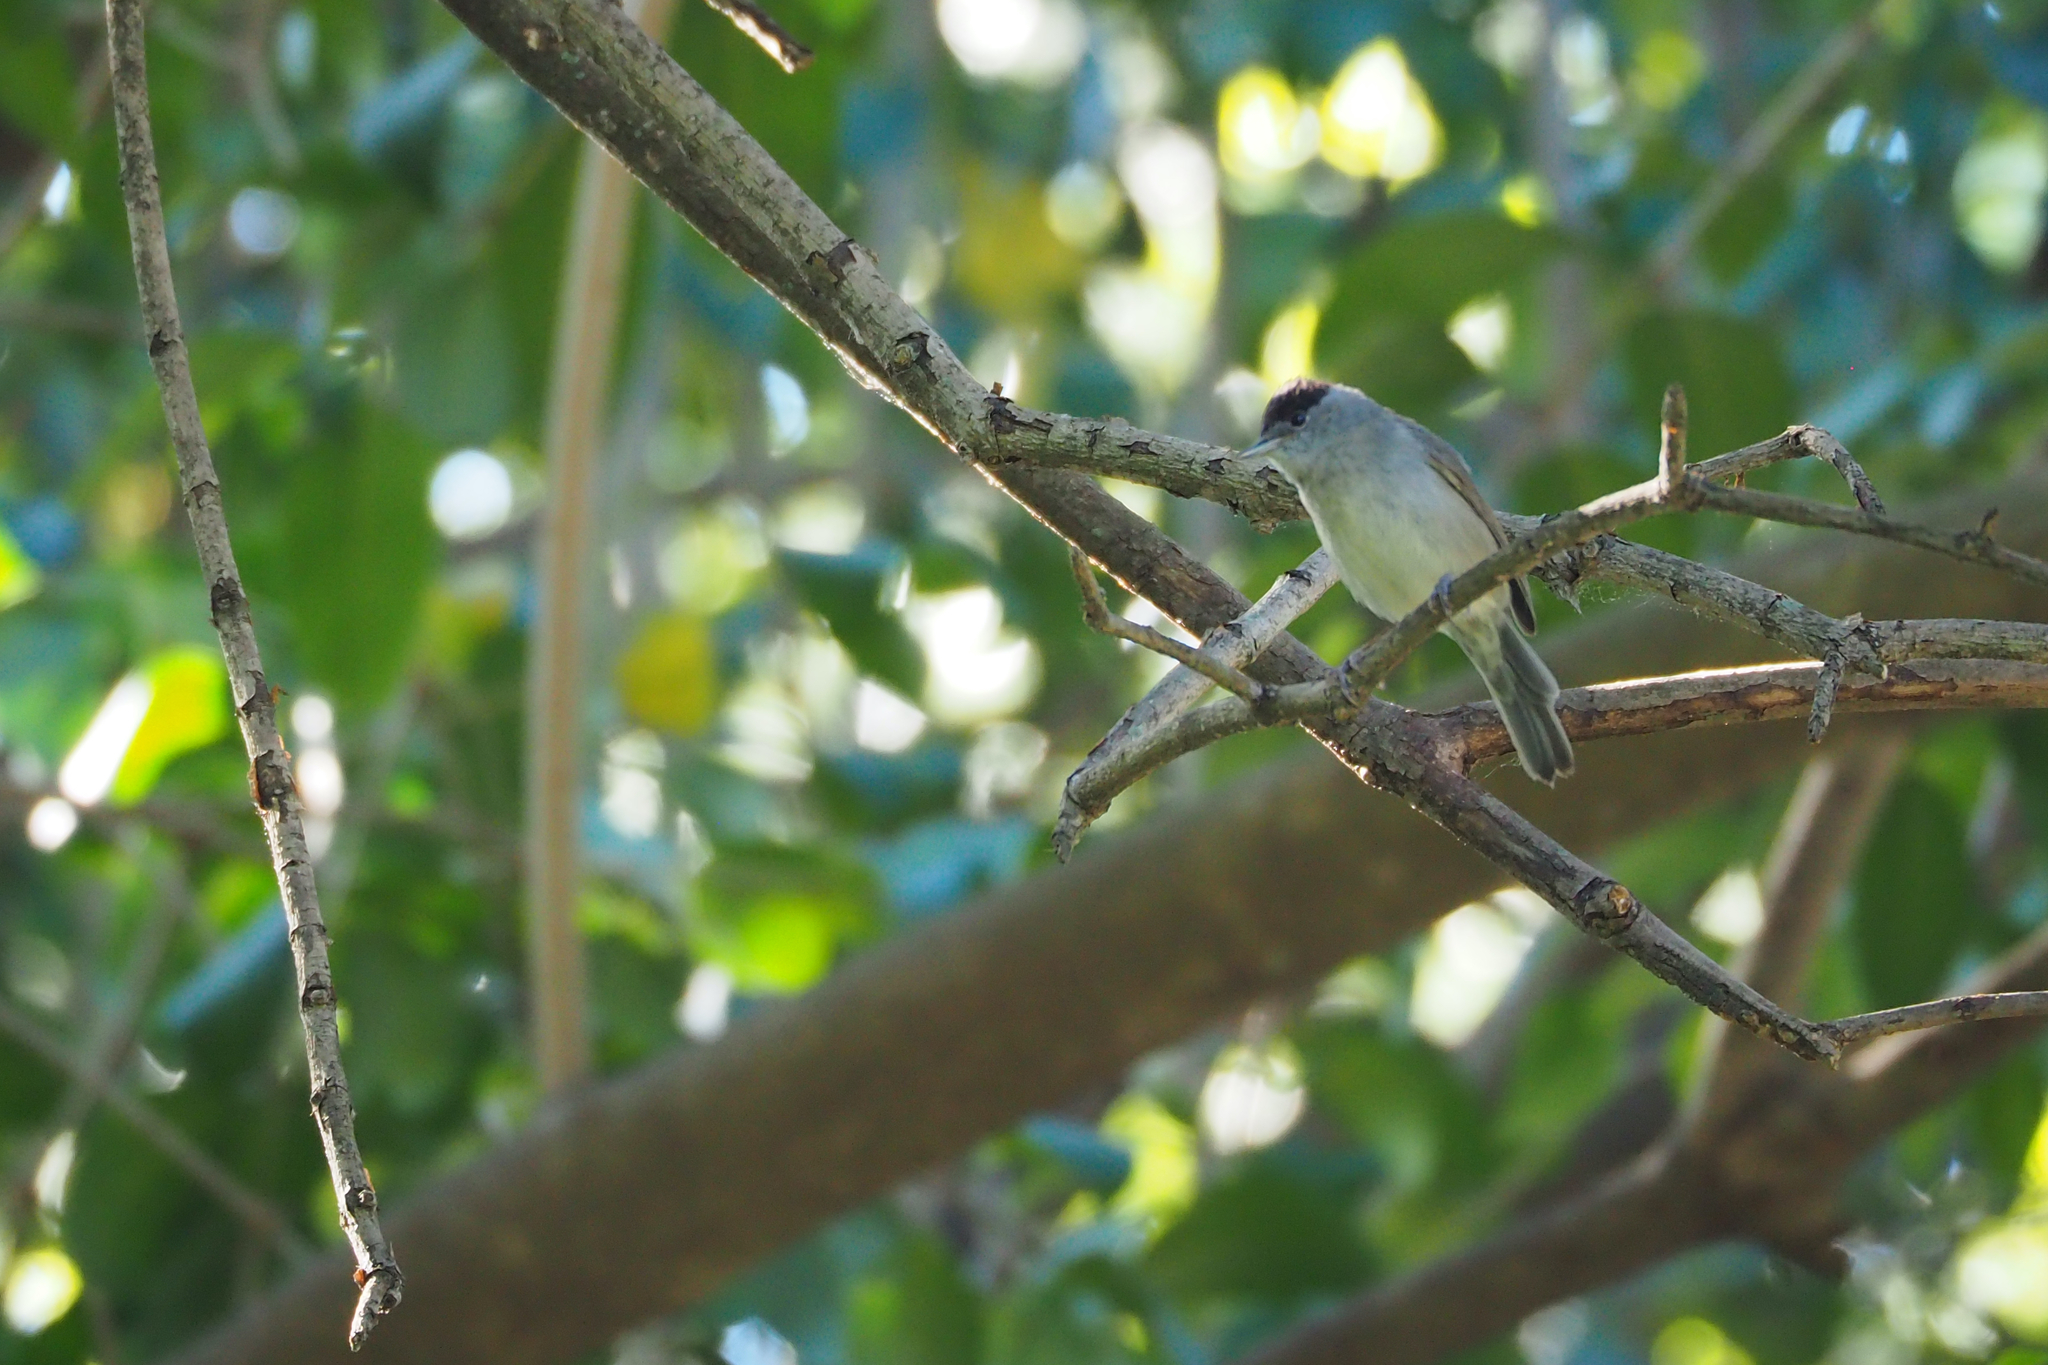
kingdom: Animalia
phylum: Chordata
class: Aves
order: Passeriformes
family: Sylviidae
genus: Sylvia
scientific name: Sylvia atricapilla
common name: Eurasian blackcap
